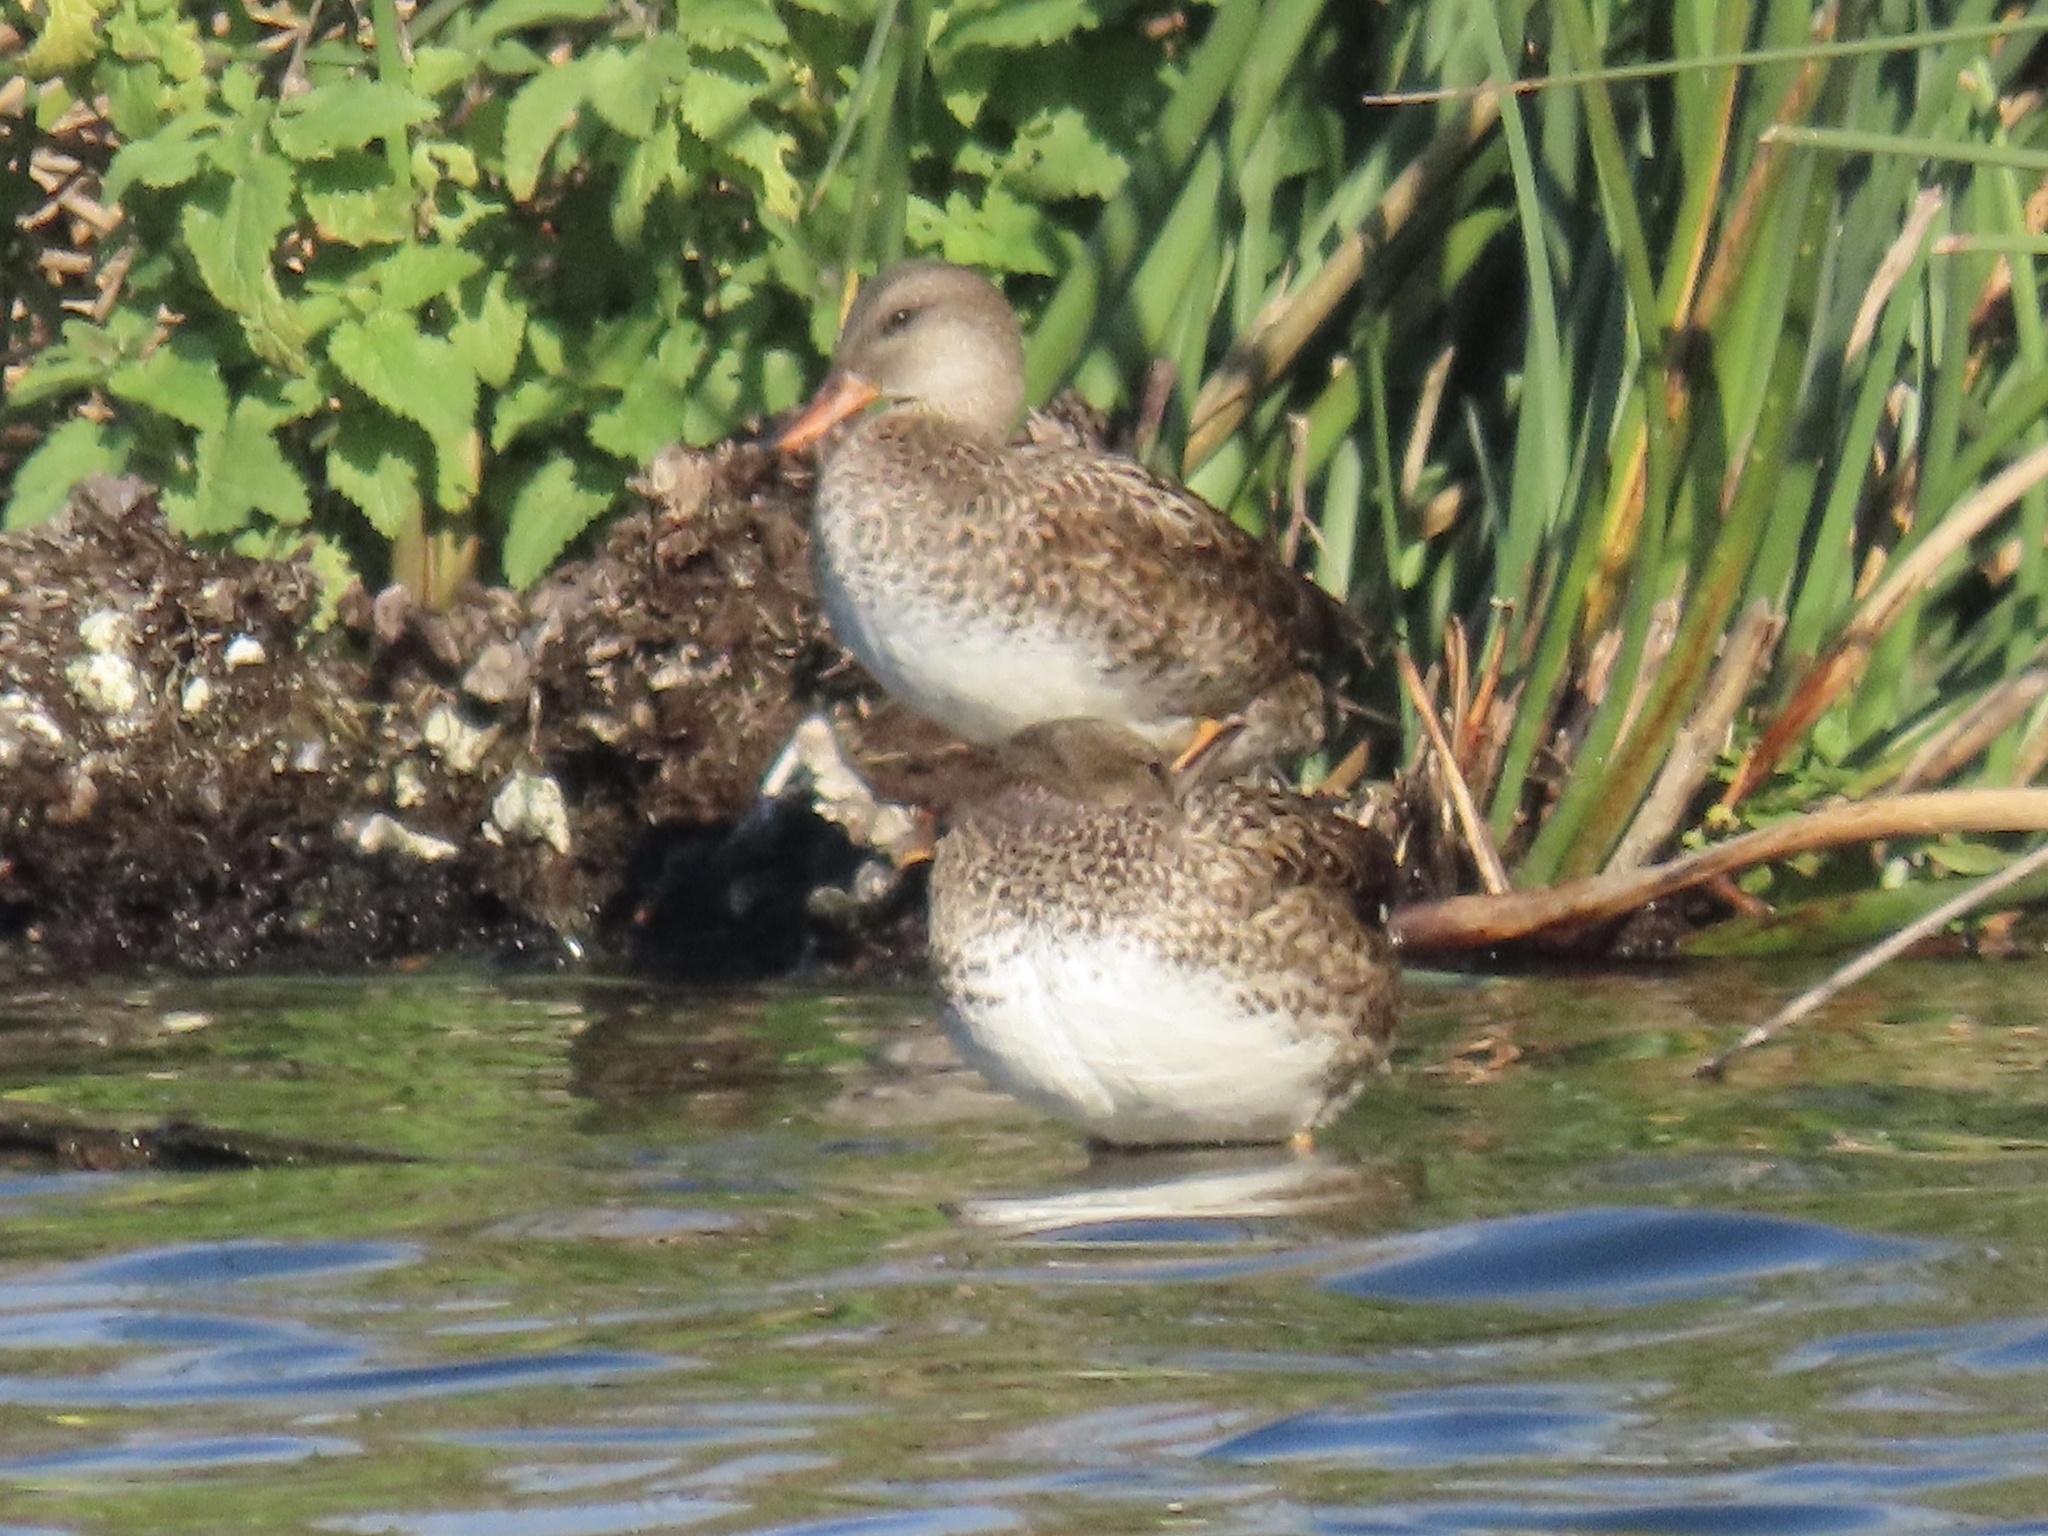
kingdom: Animalia
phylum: Chordata
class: Aves
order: Anseriformes
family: Anatidae
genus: Mareca
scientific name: Mareca strepera
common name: Gadwall
